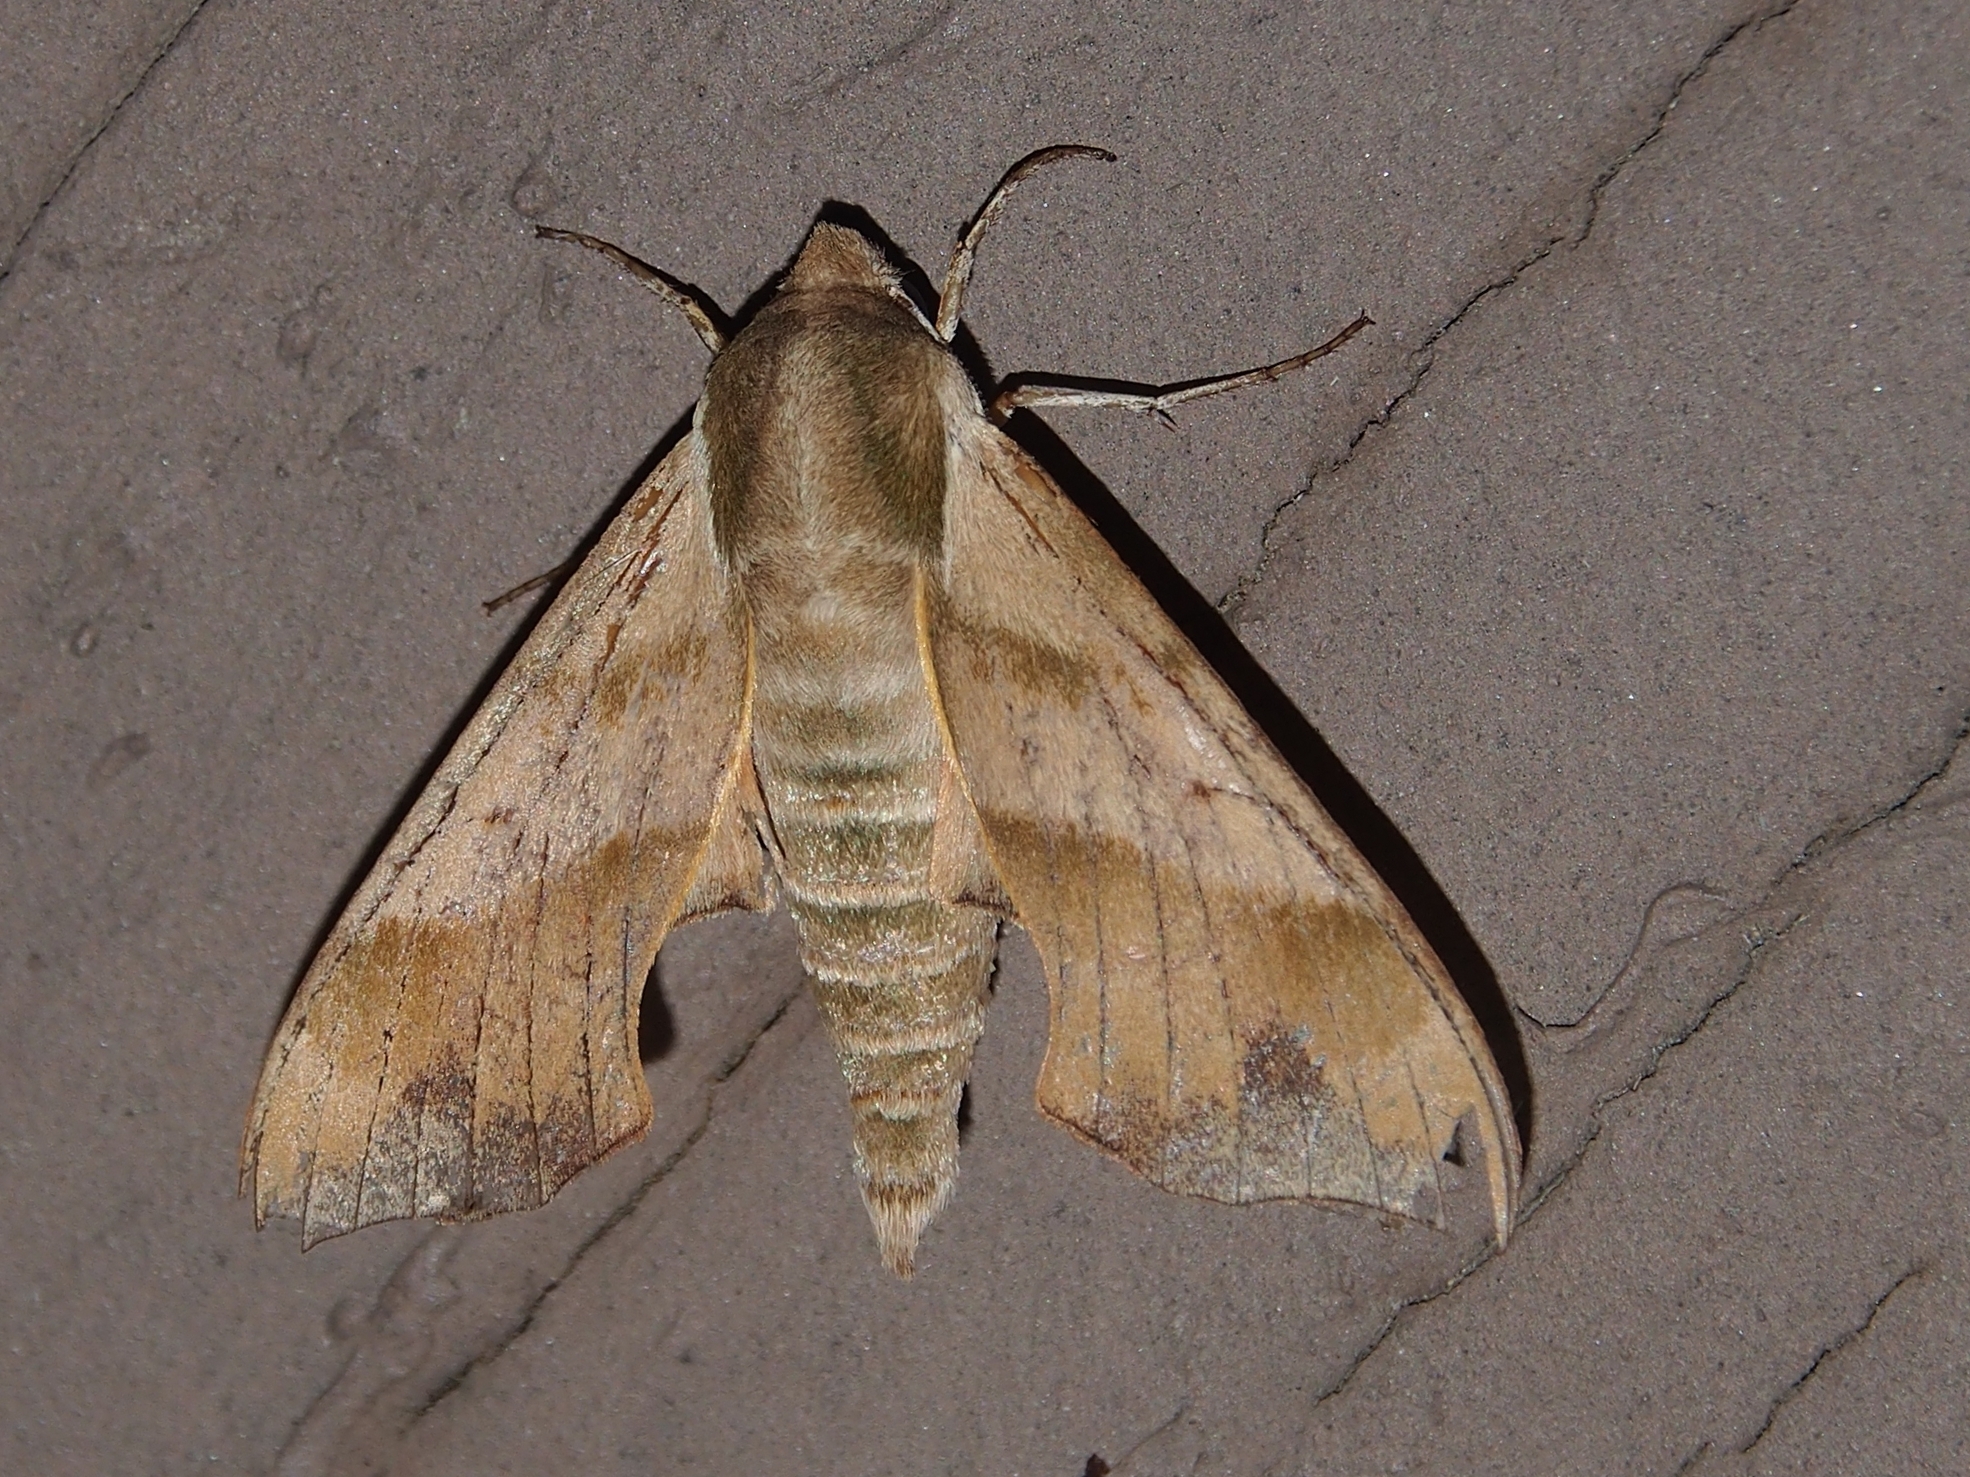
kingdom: Animalia
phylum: Arthropoda
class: Insecta
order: Lepidoptera
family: Sphingidae
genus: Darapsa
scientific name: Darapsa myron
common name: Hog sphinx
